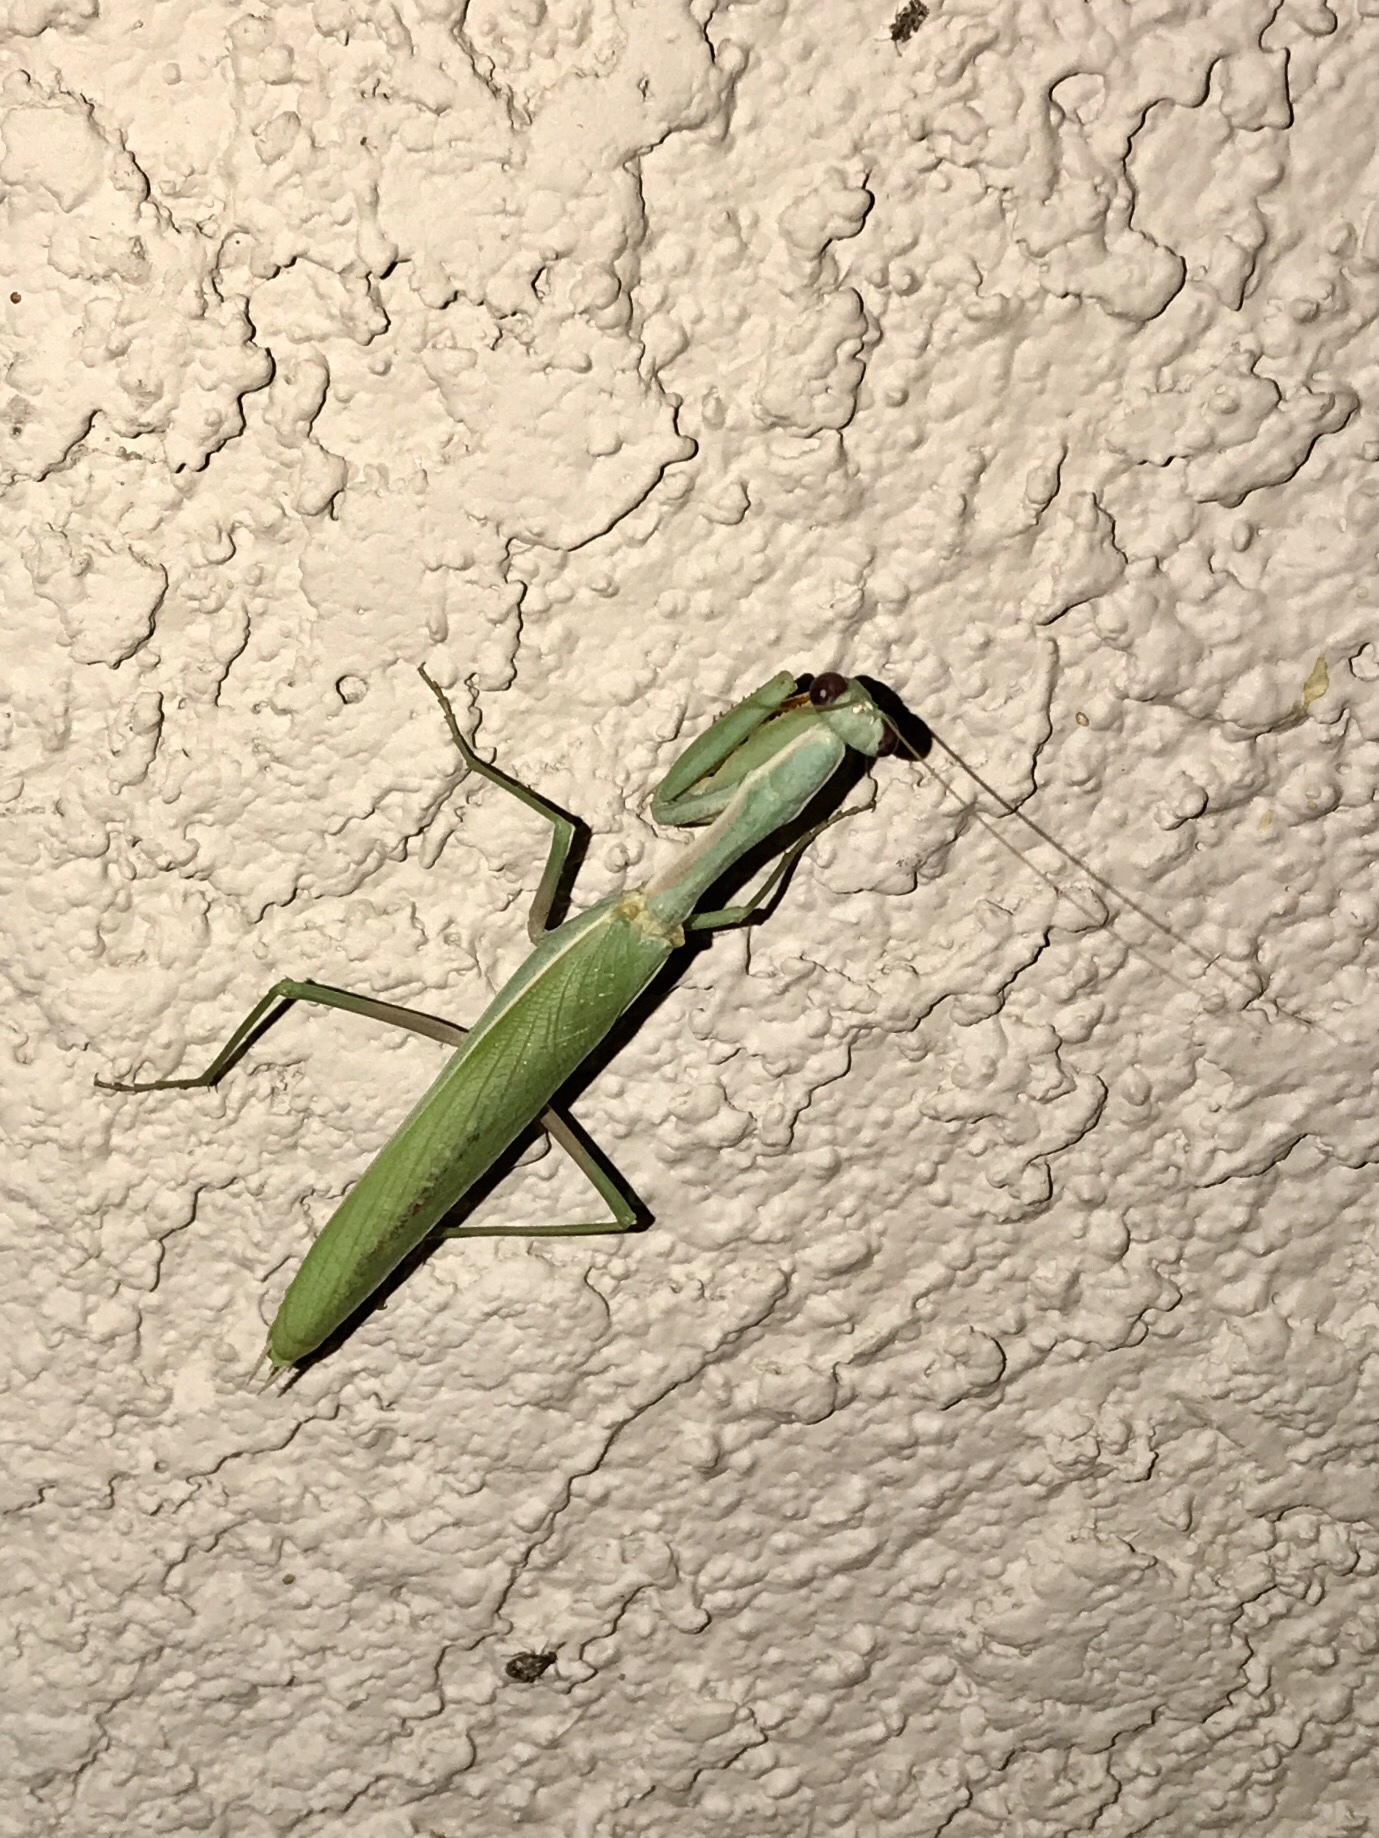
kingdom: Animalia
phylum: Arthropoda
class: Insecta
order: Mantodea
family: Eremiaphilidae
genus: Iris
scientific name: Iris oratoria
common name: Mediterranean mantis
